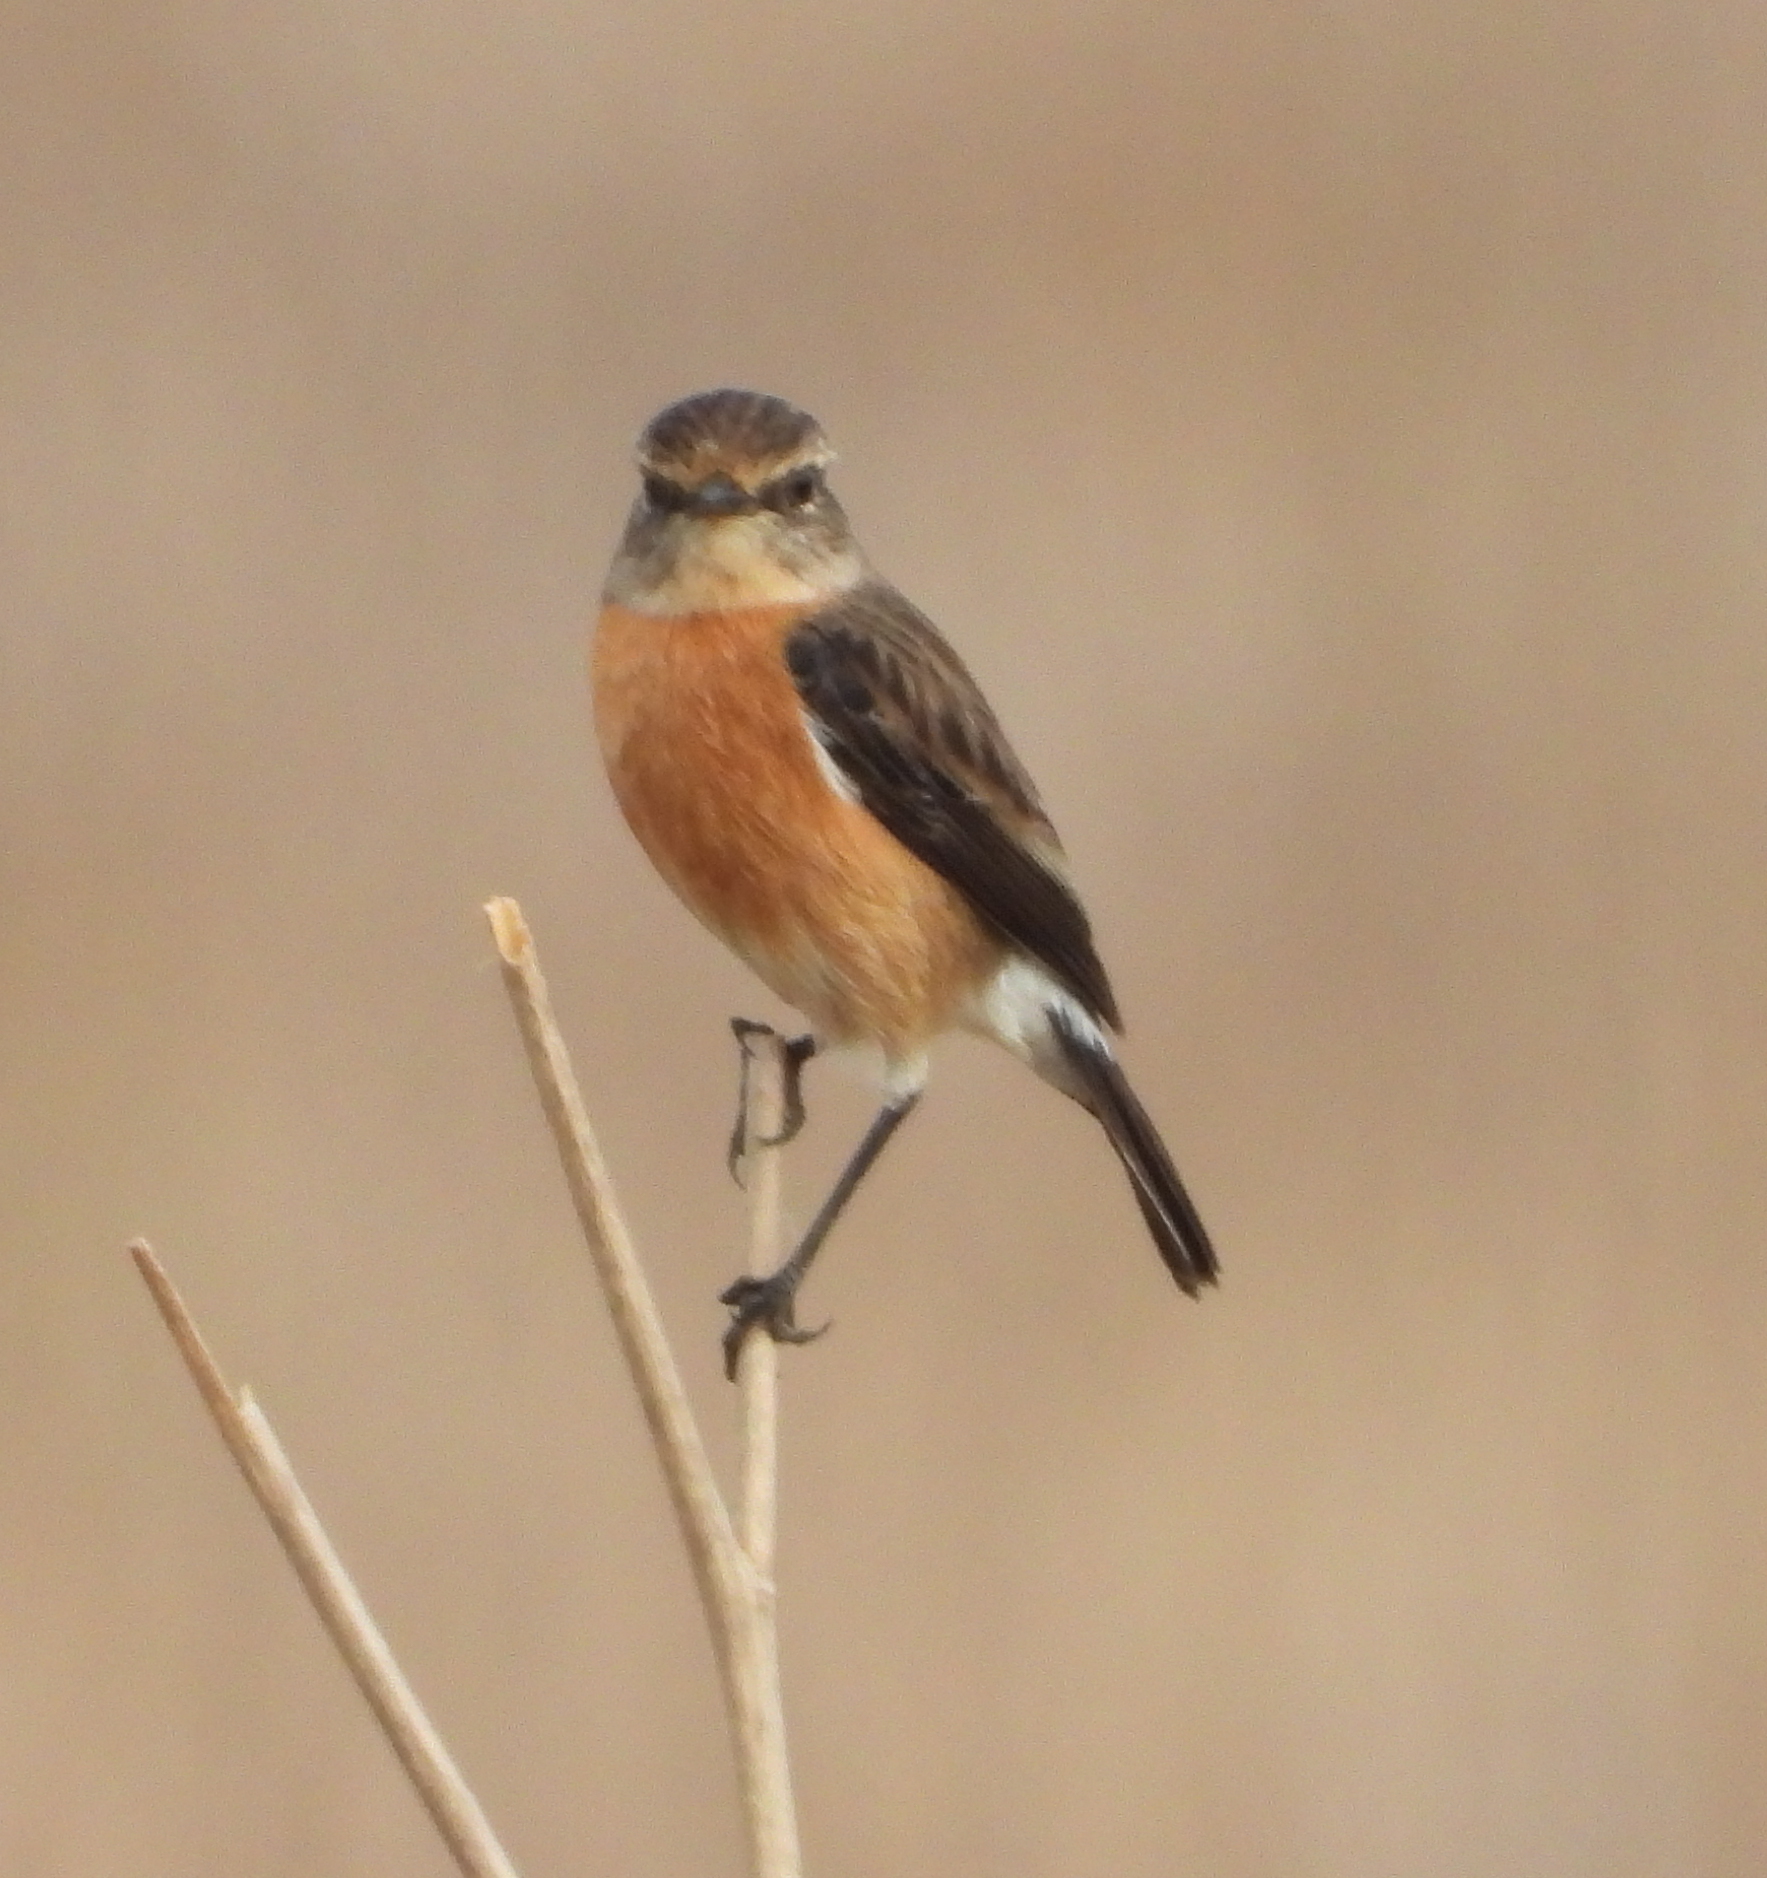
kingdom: Animalia
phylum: Chordata
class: Aves
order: Passeriformes
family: Muscicapidae
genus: Saxicola
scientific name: Saxicola torquatus
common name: African stonechat
